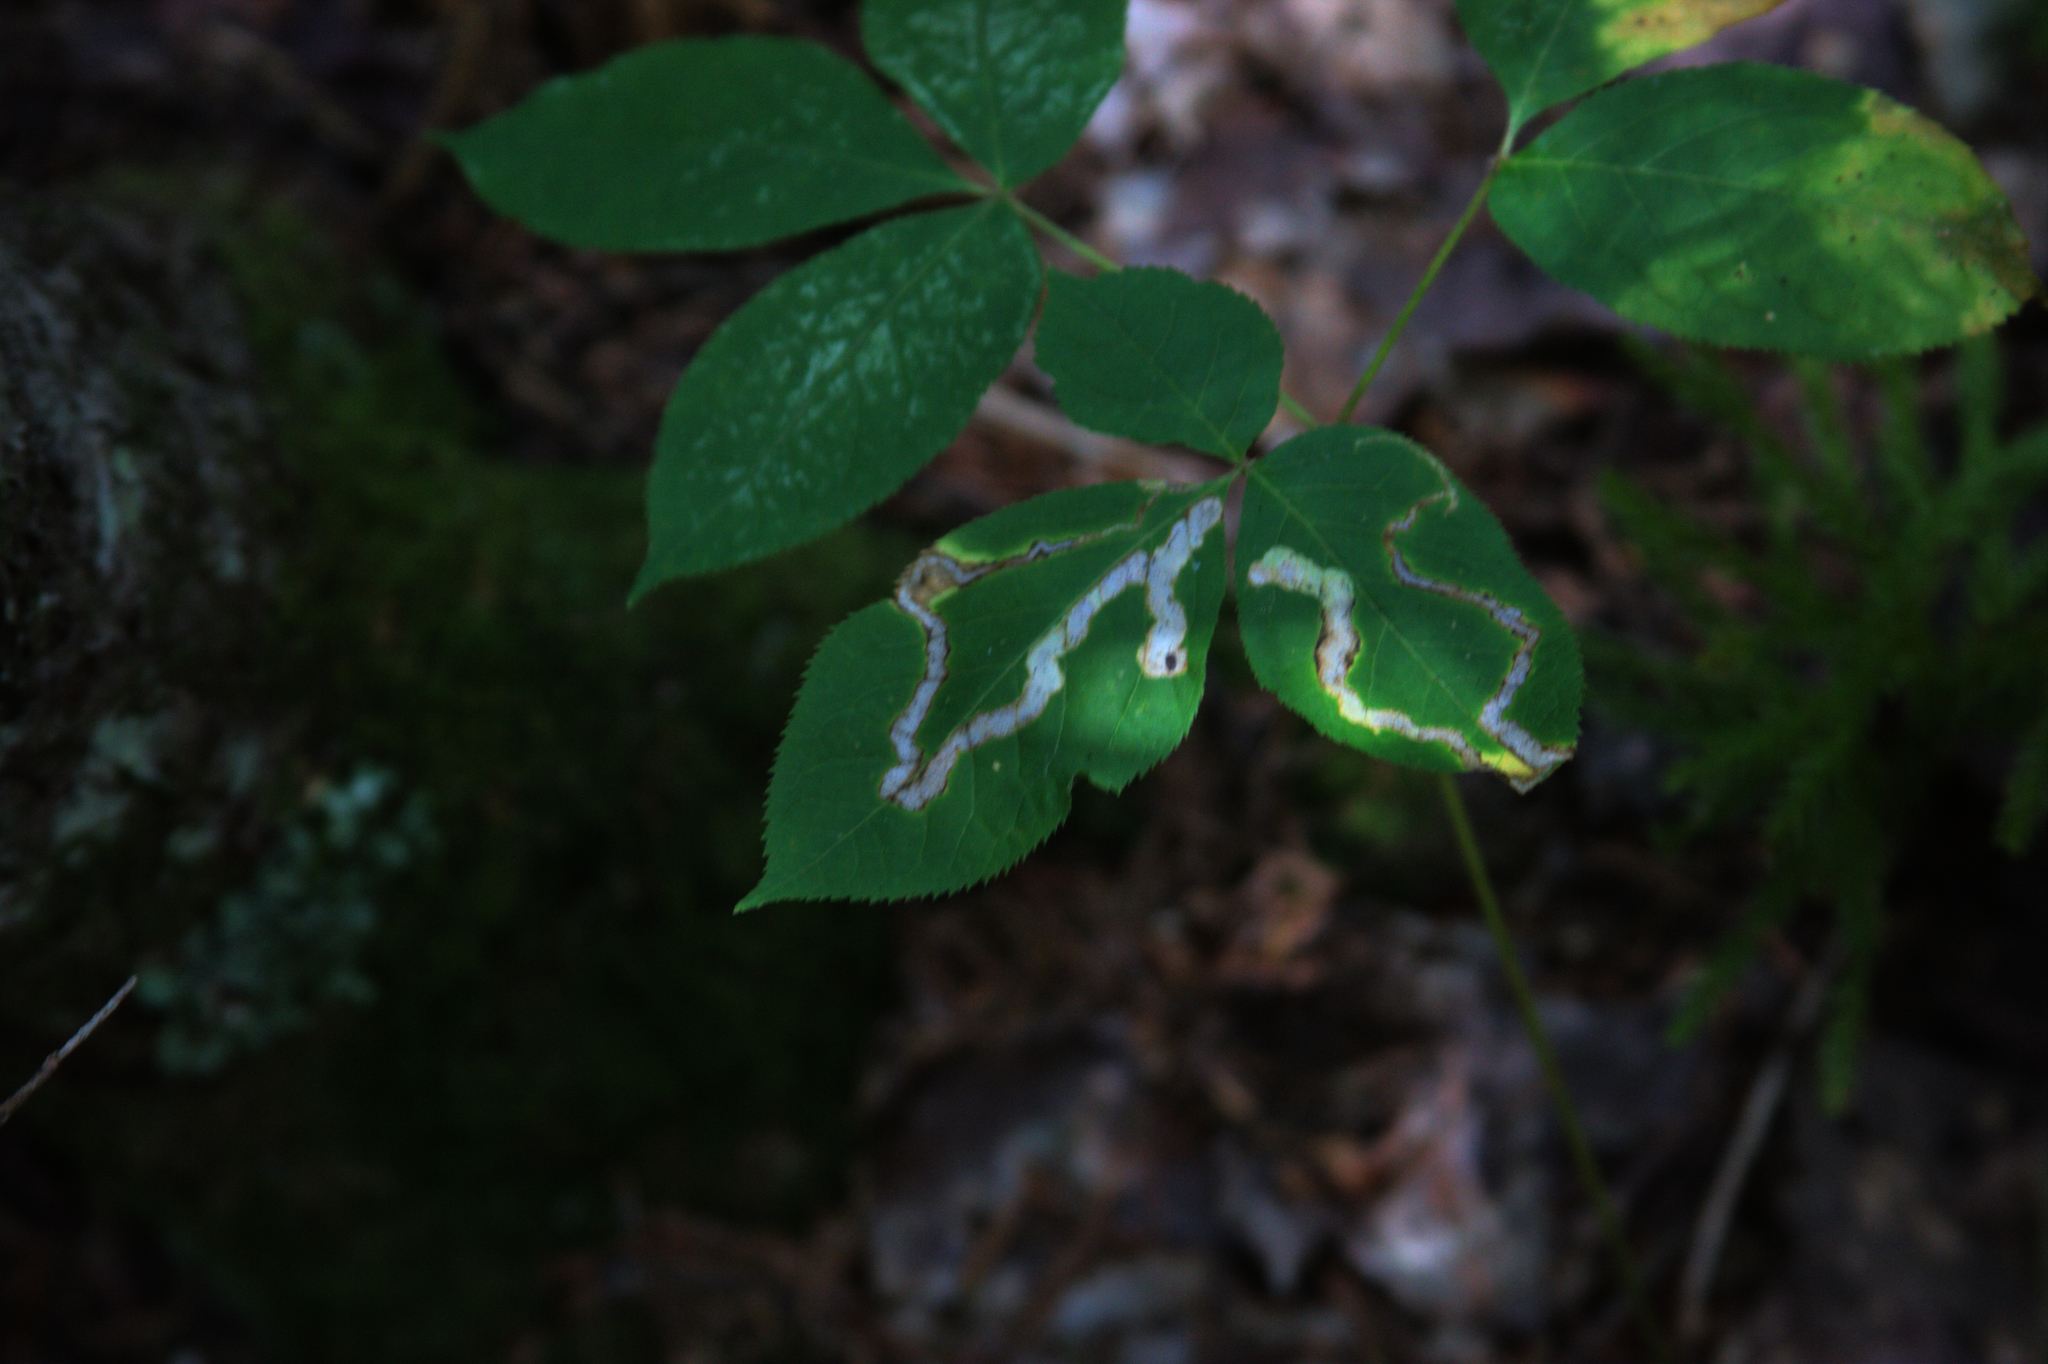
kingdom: Plantae
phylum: Tracheophyta
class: Magnoliopsida
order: Apiales
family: Araliaceae
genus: Aralia
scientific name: Aralia nudicaulis
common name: Wild sarsaparilla
